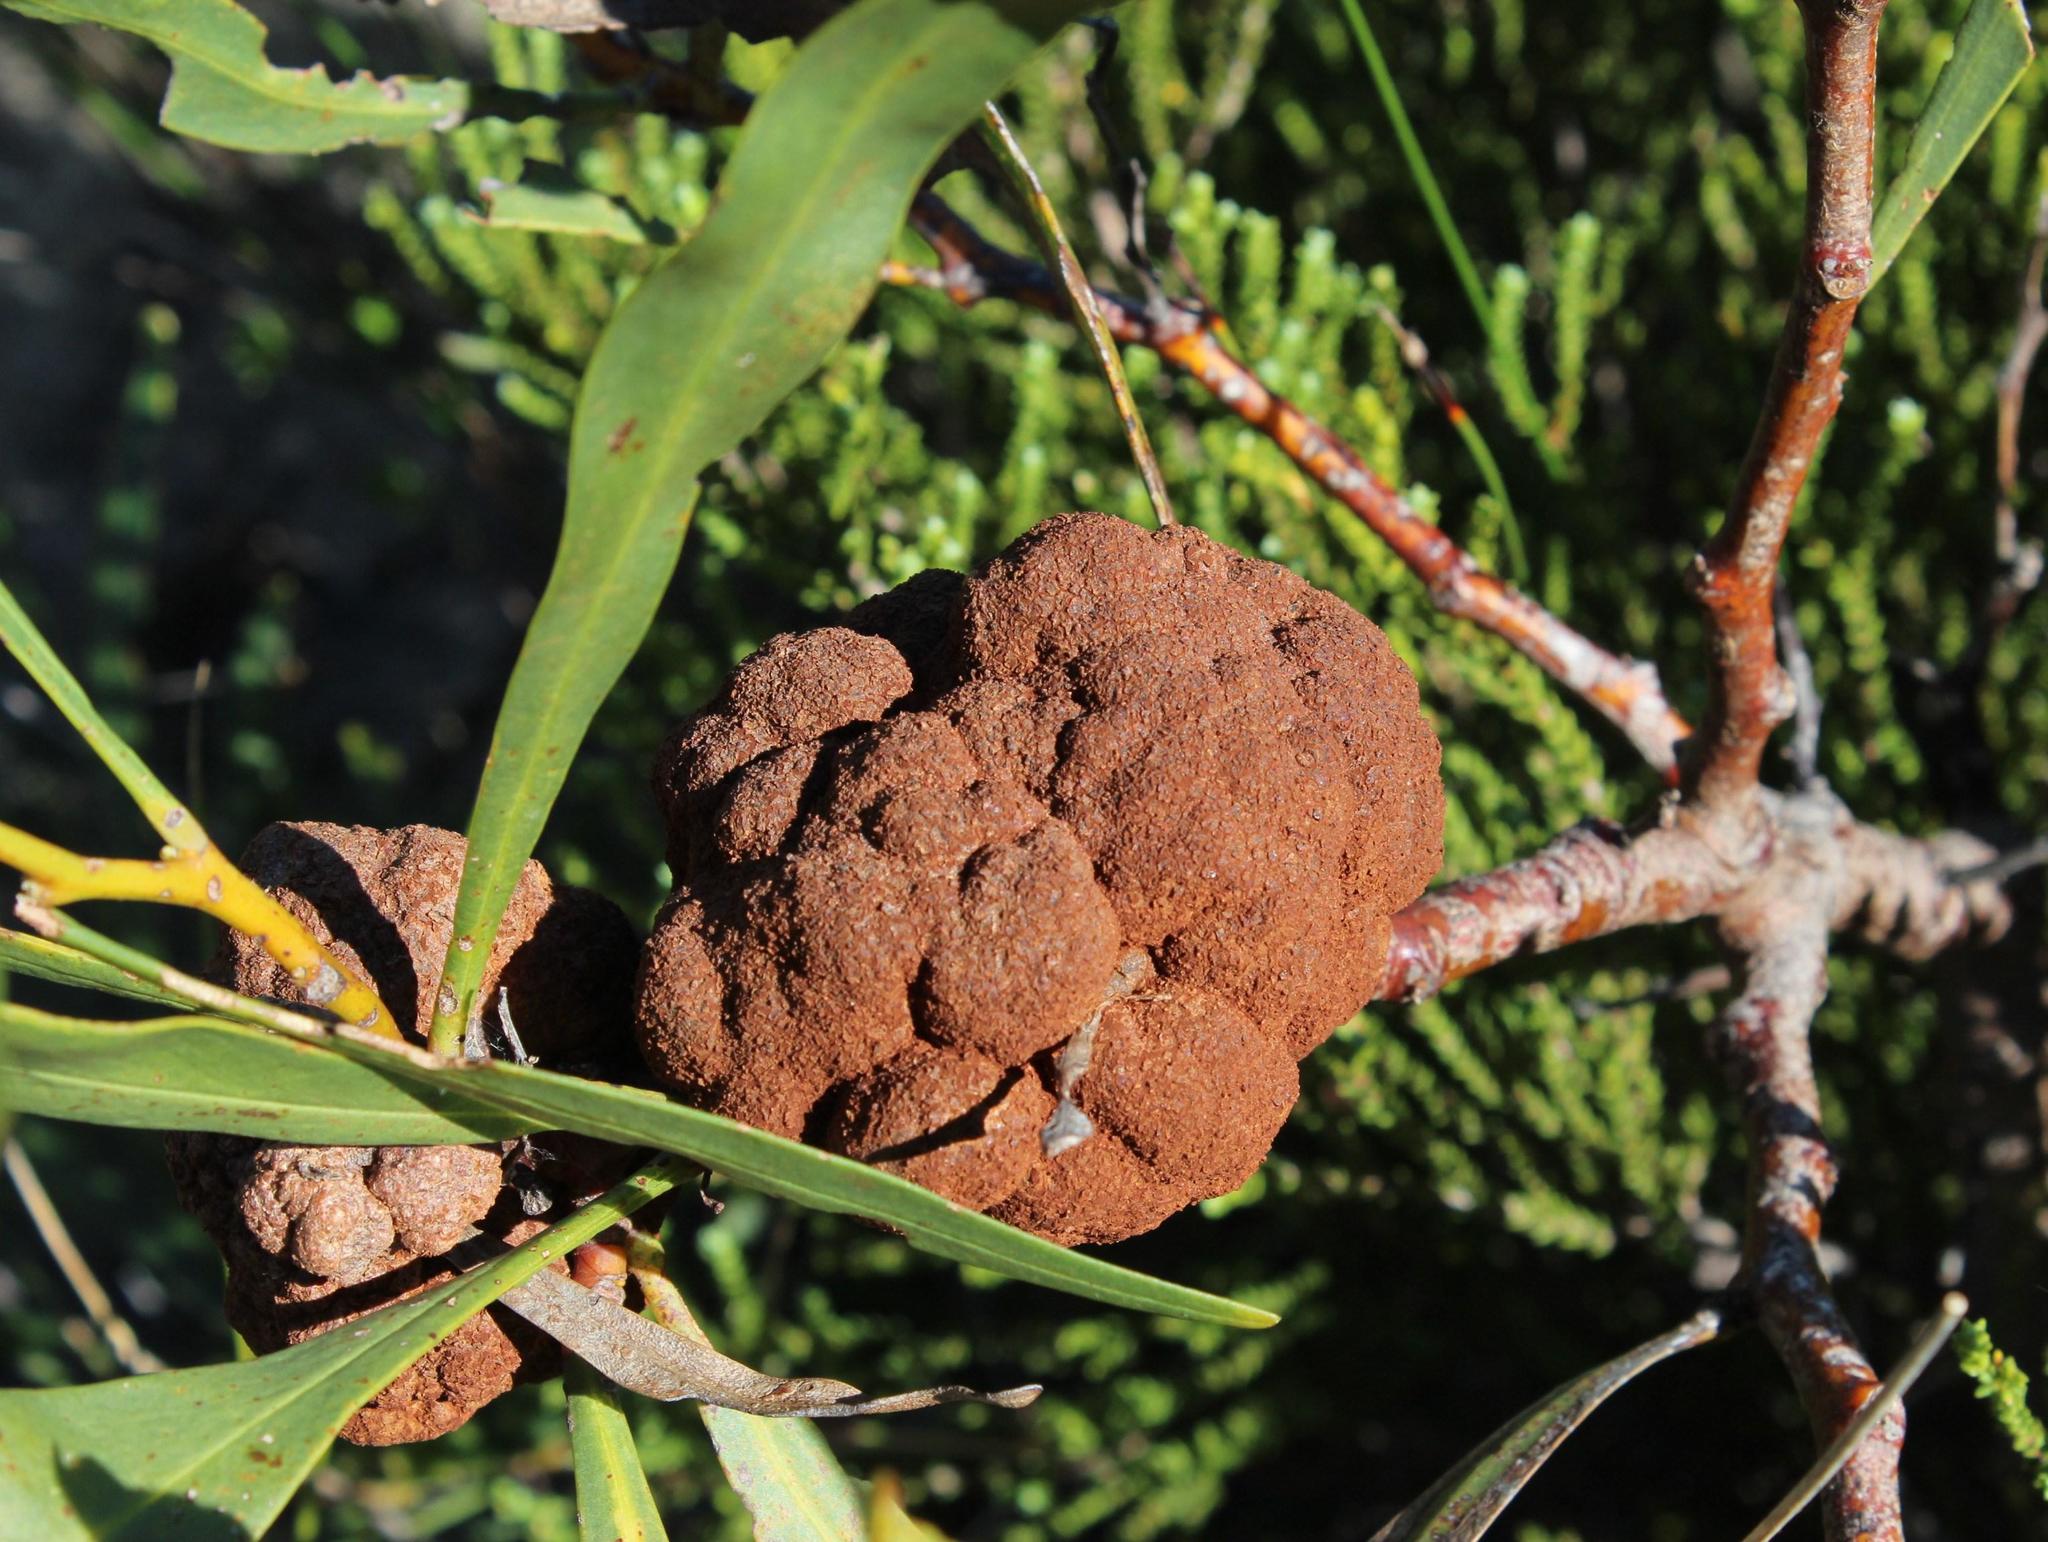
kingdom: Fungi
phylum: Basidiomycota
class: Pucciniomycetes
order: Pucciniales
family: Uromycladiaceae
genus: Uromycladium
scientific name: Uromycladium morrisii
